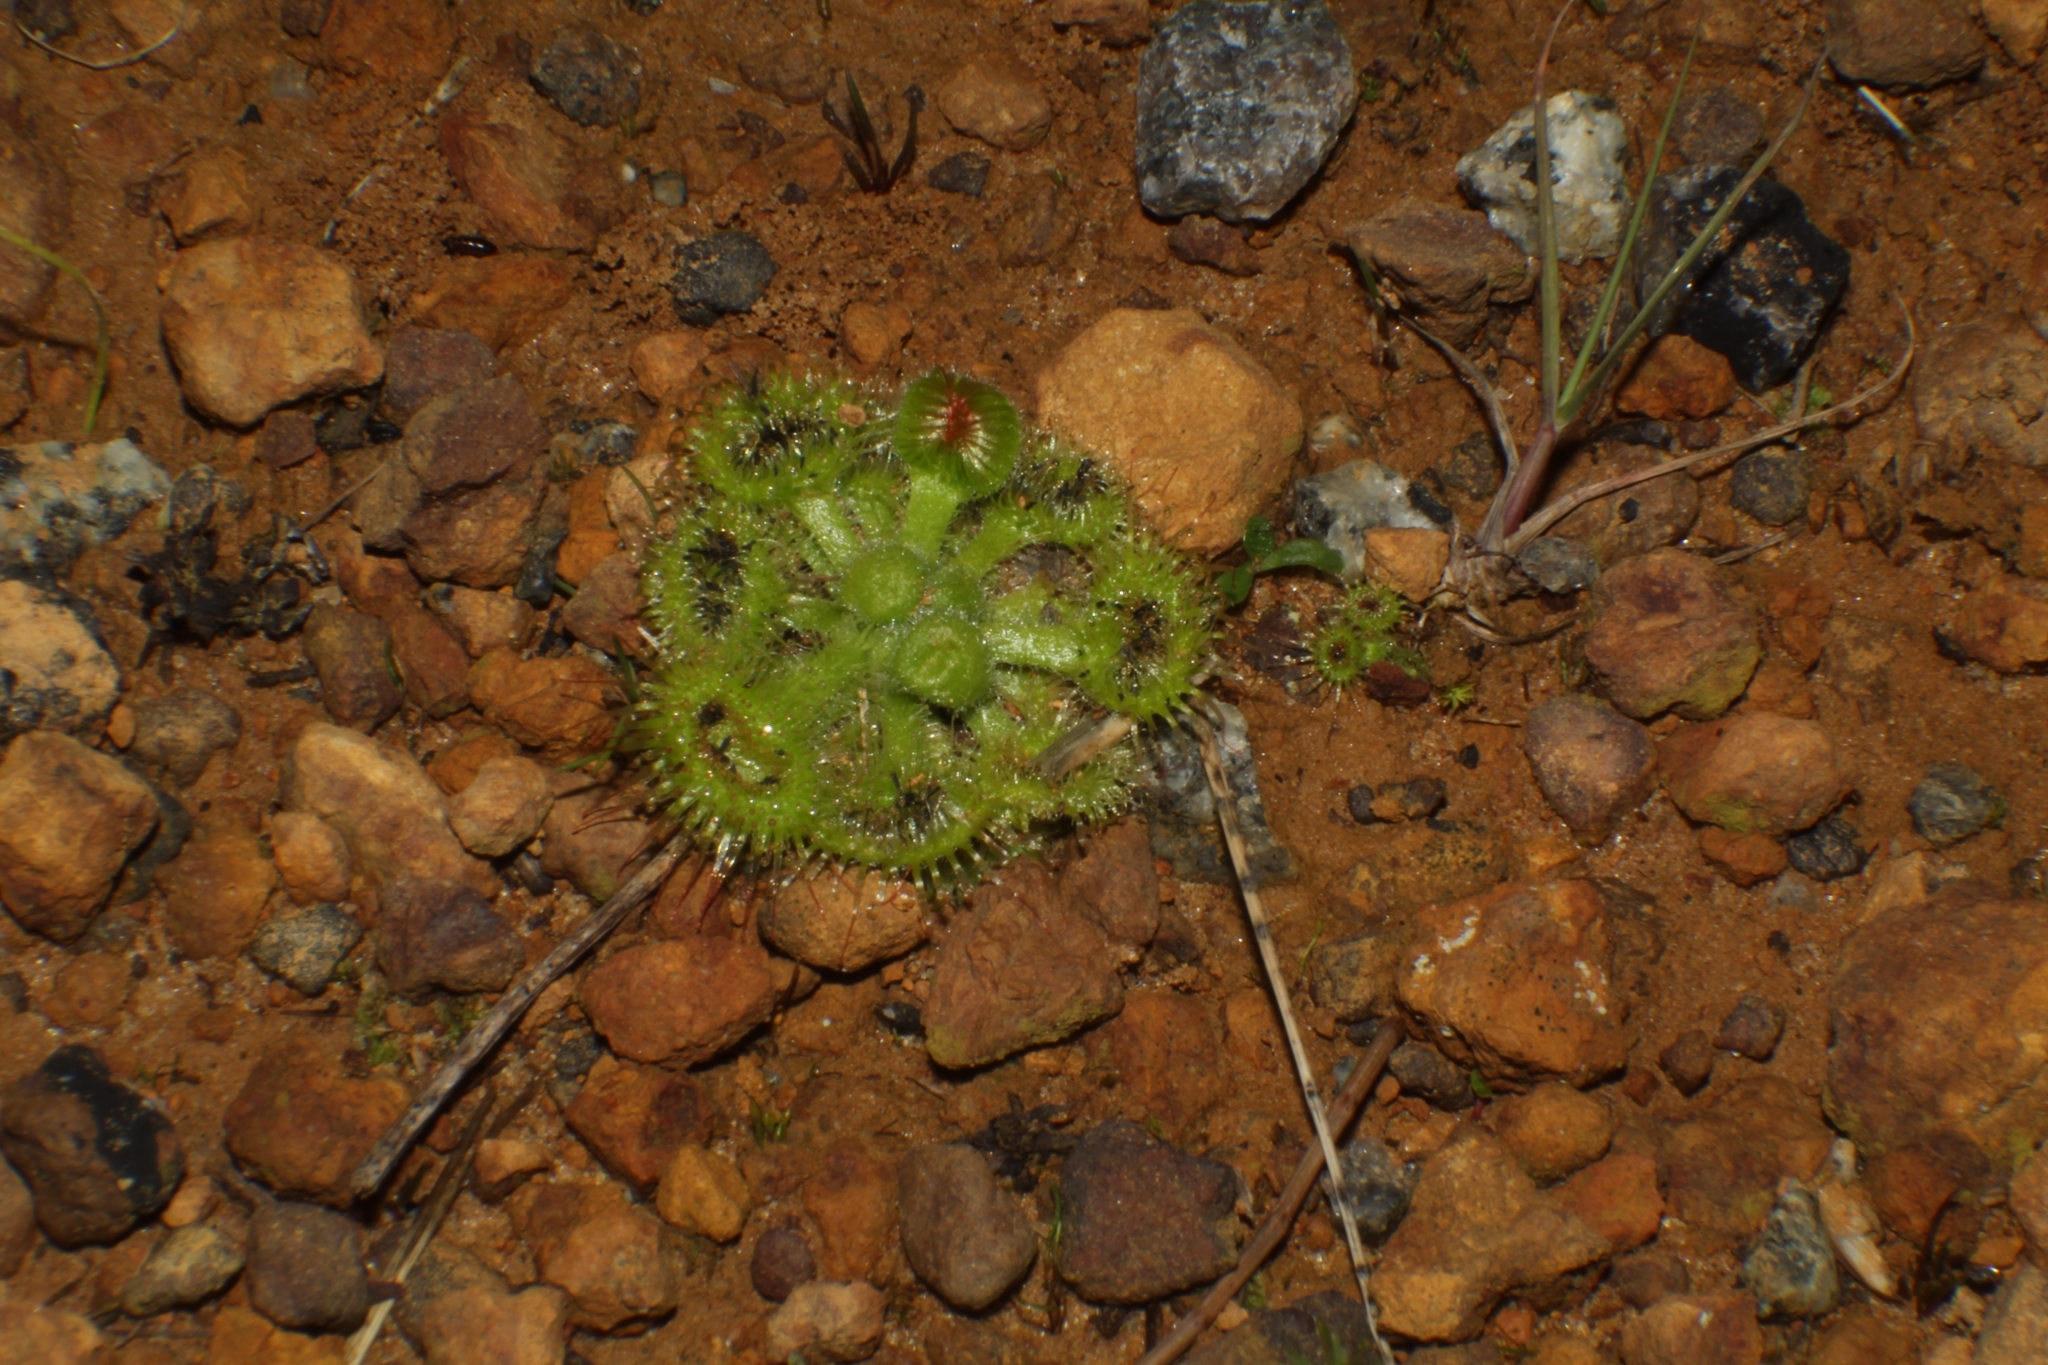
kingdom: Plantae
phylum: Tracheophyta
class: Magnoliopsida
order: Caryophyllales
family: Droseraceae
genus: Drosera
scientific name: Drosera glanduligera
